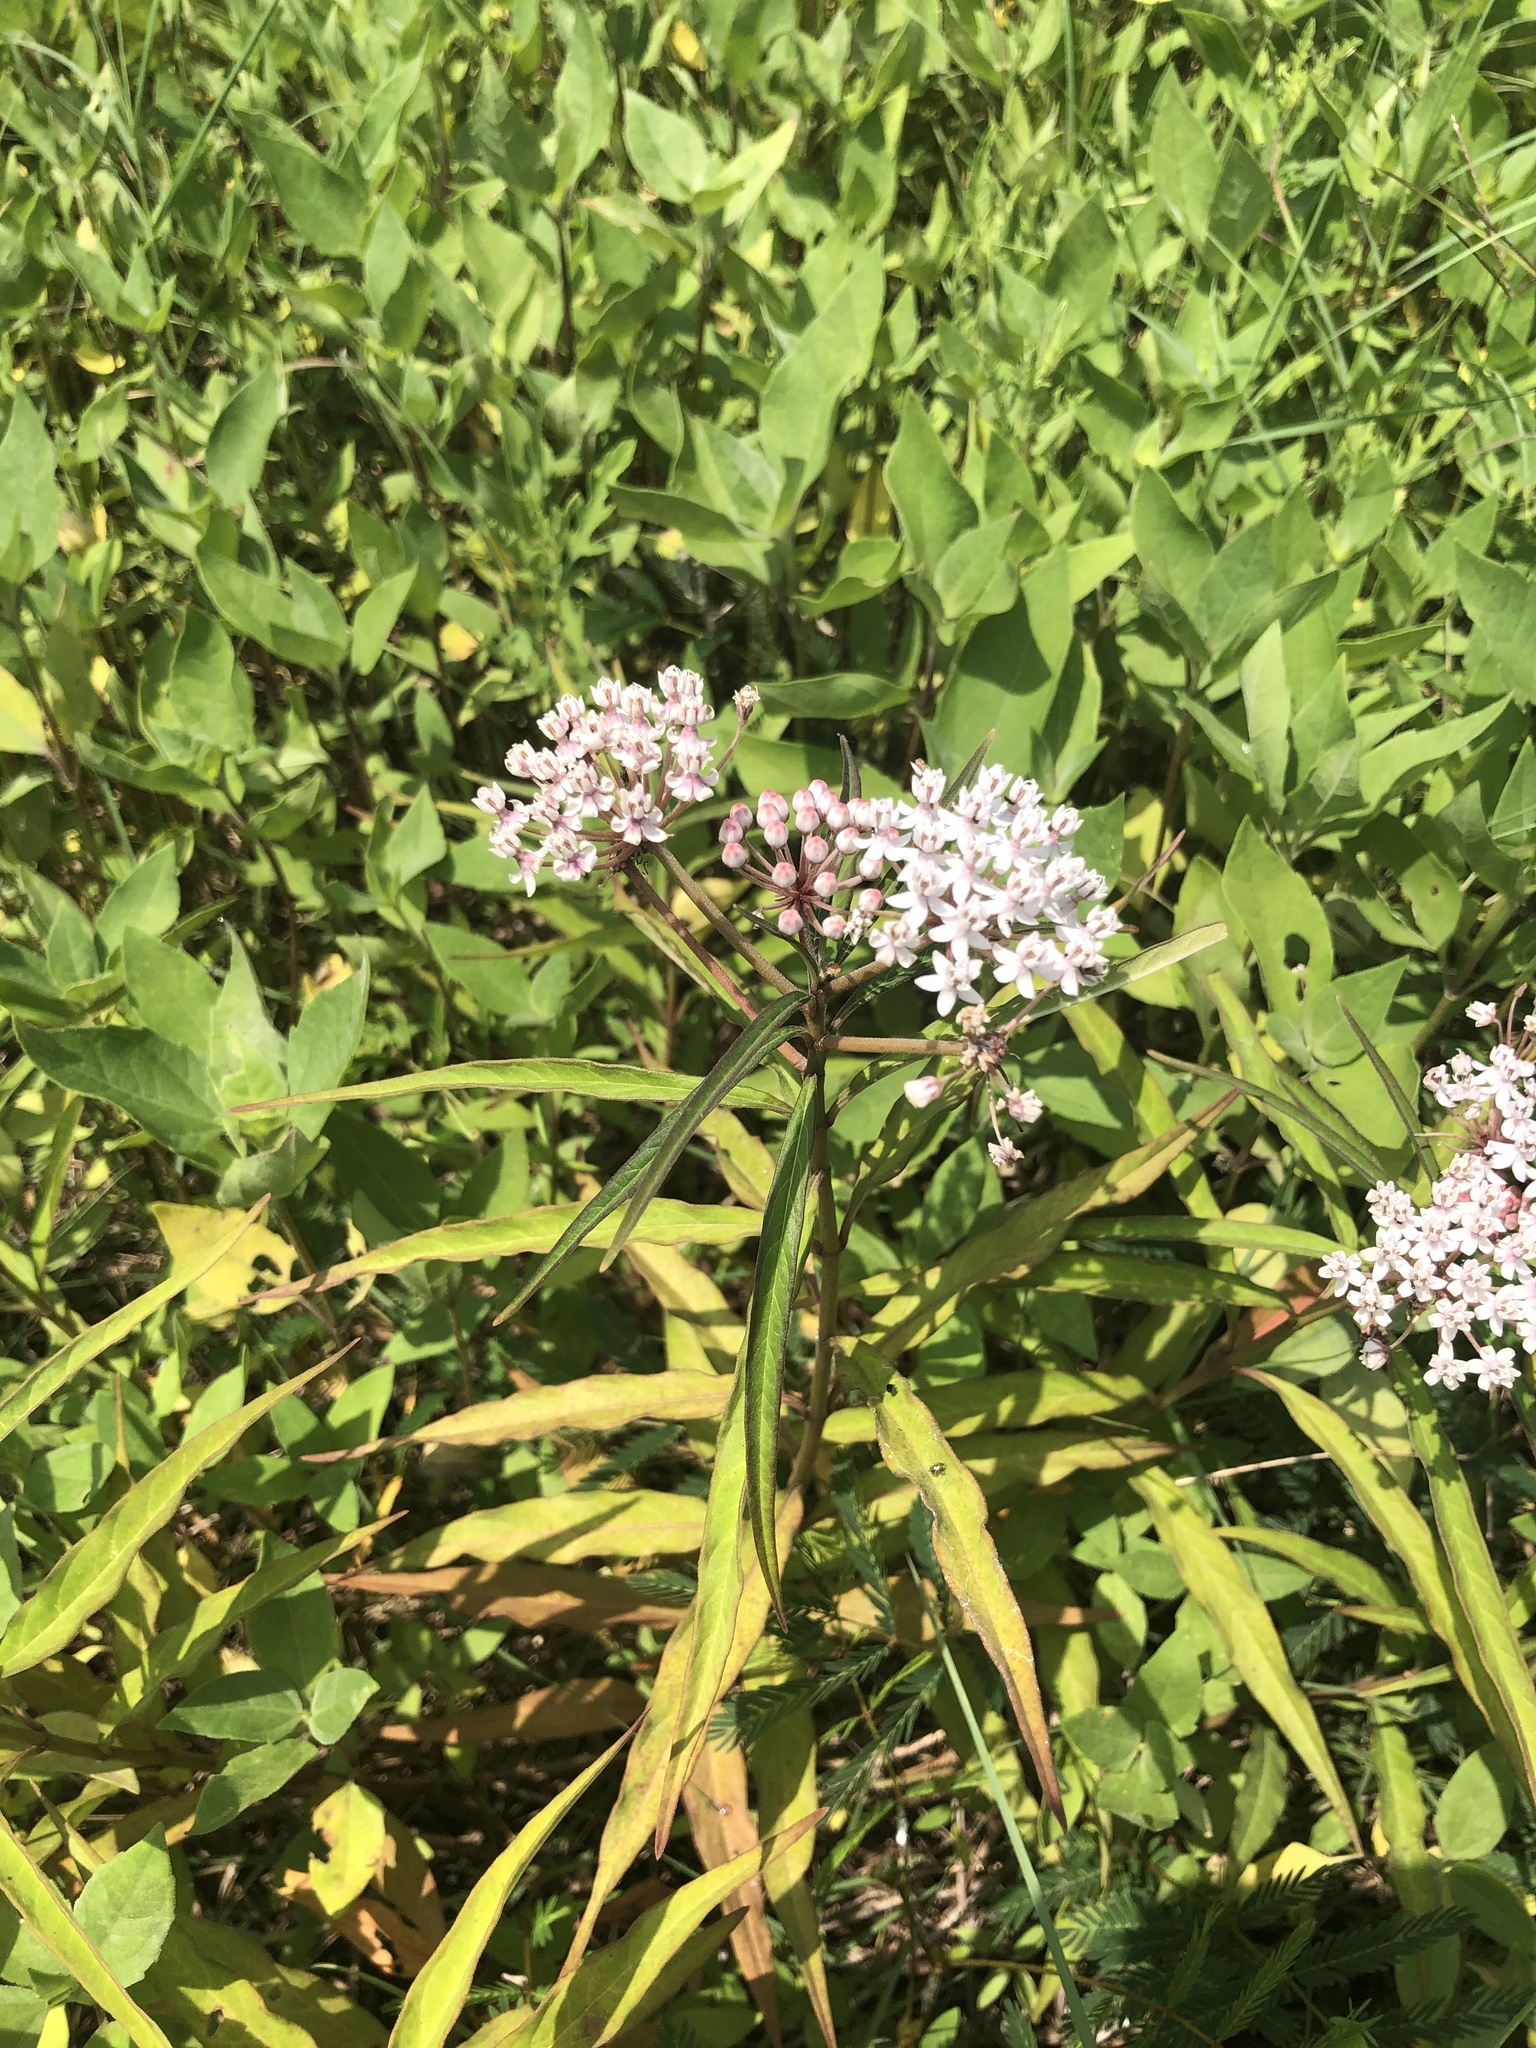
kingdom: Plantae
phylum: Tracheophyta
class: Magnoliopsida
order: Gentianales
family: Apocynaceae
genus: Asclepias
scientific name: Asclepias perennis
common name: Smooth-seed milkweed
